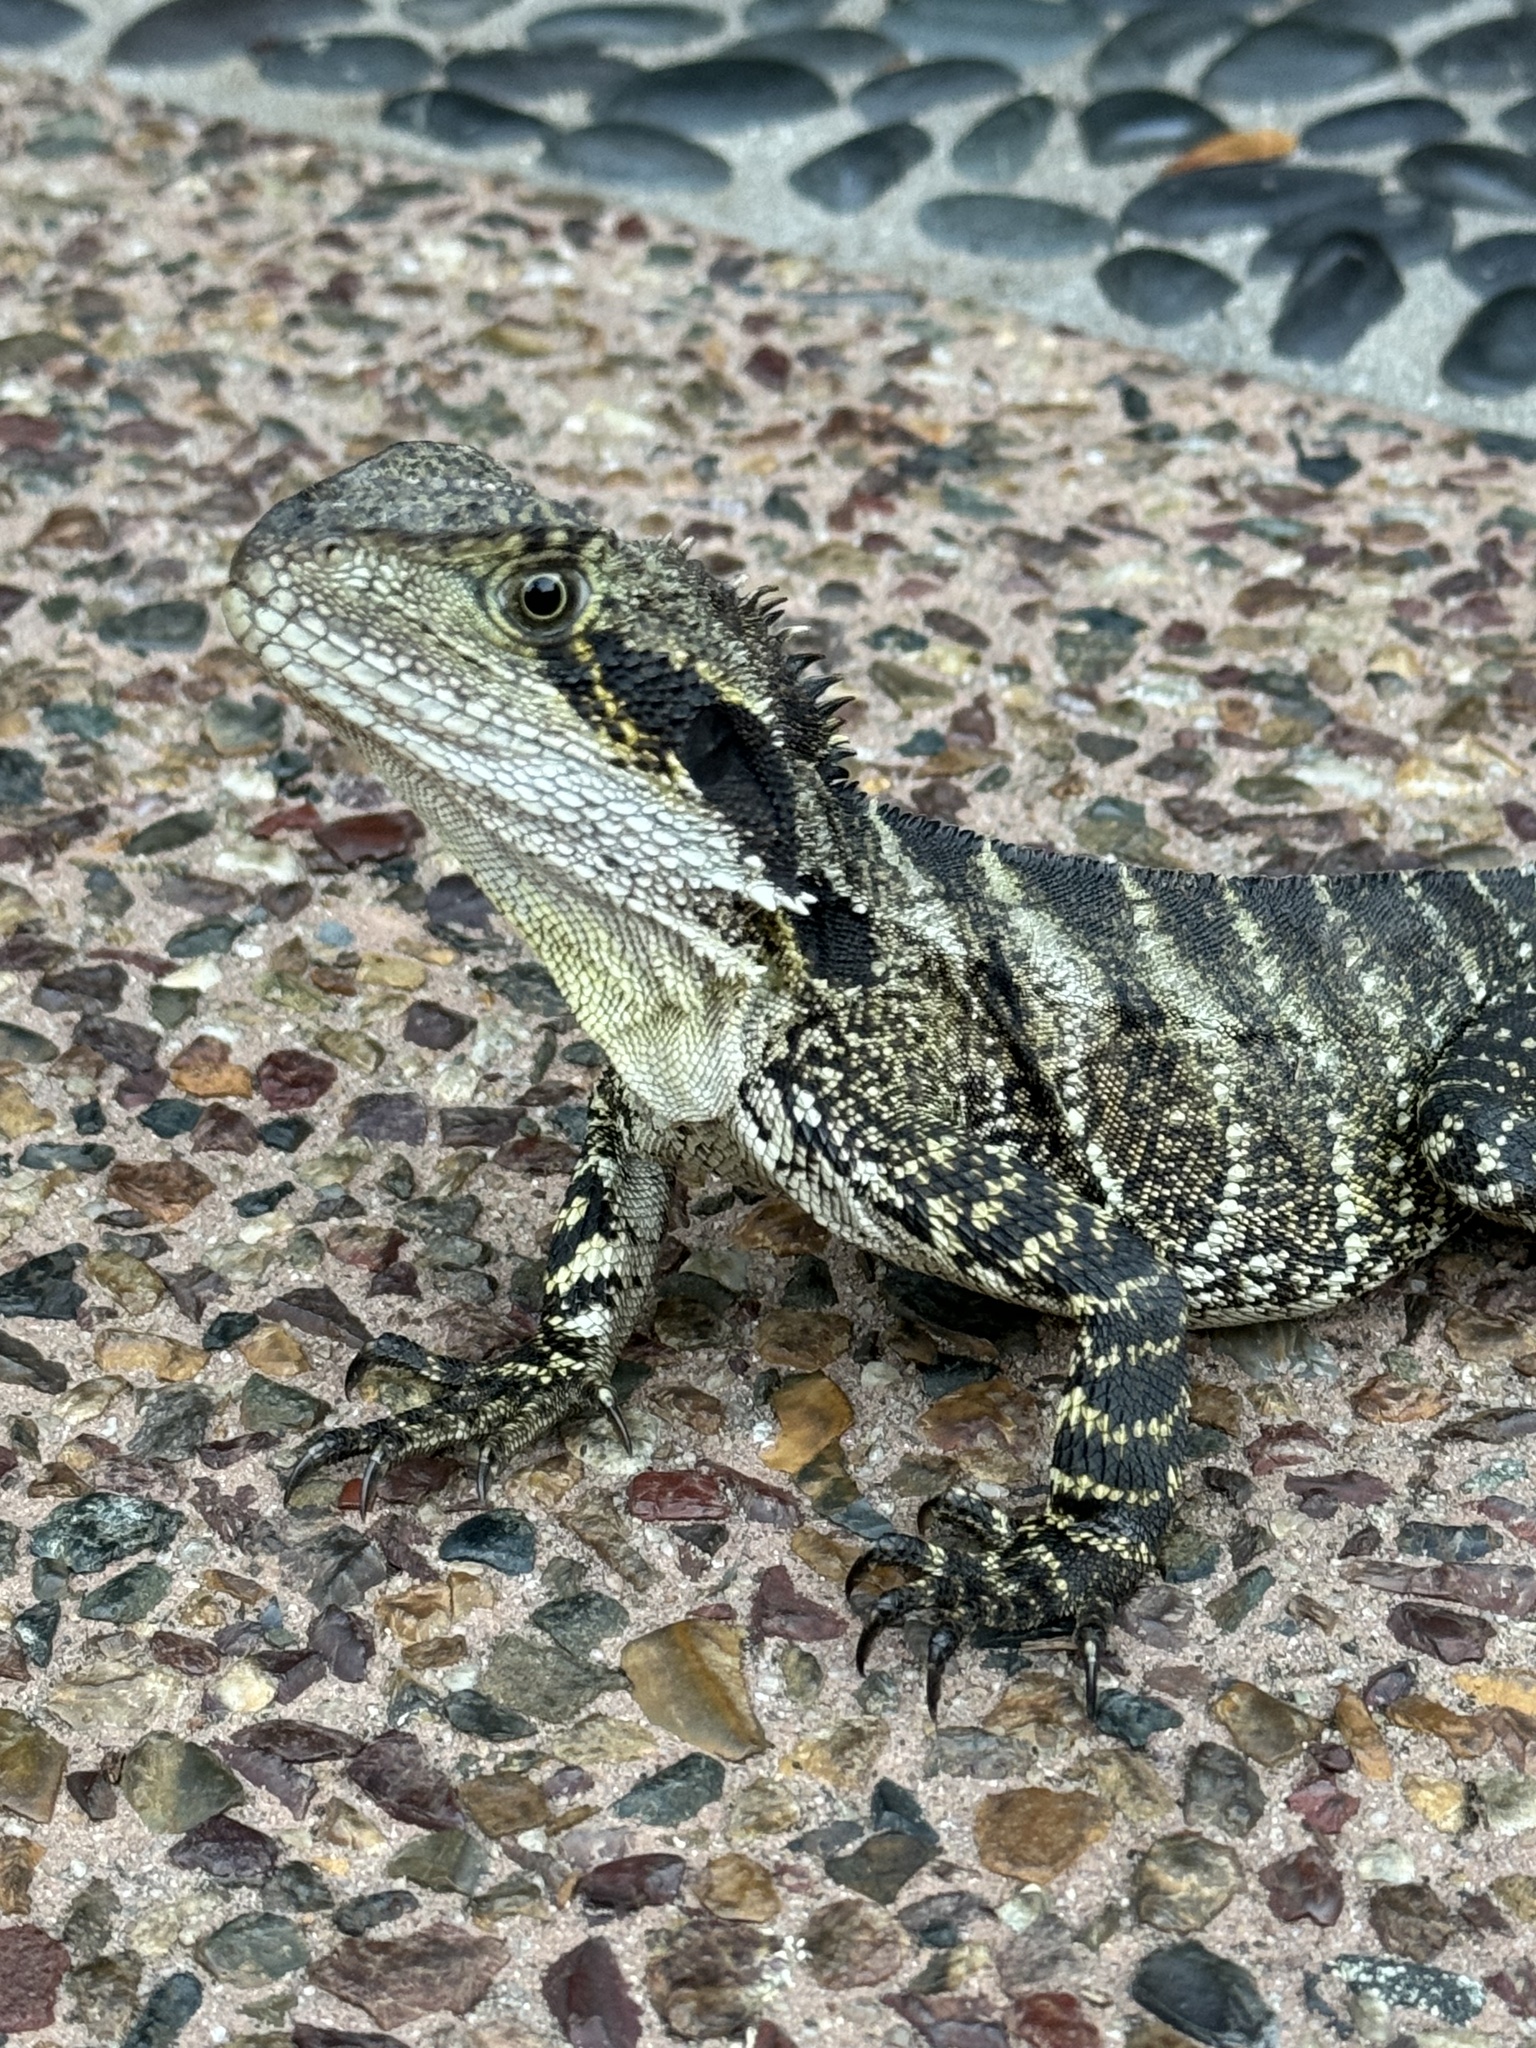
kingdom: Animalia
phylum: Chordata
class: Squamata
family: Agamidae
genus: Intellagama
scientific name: Intellagama lesueurii
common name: Eastern water dragon
